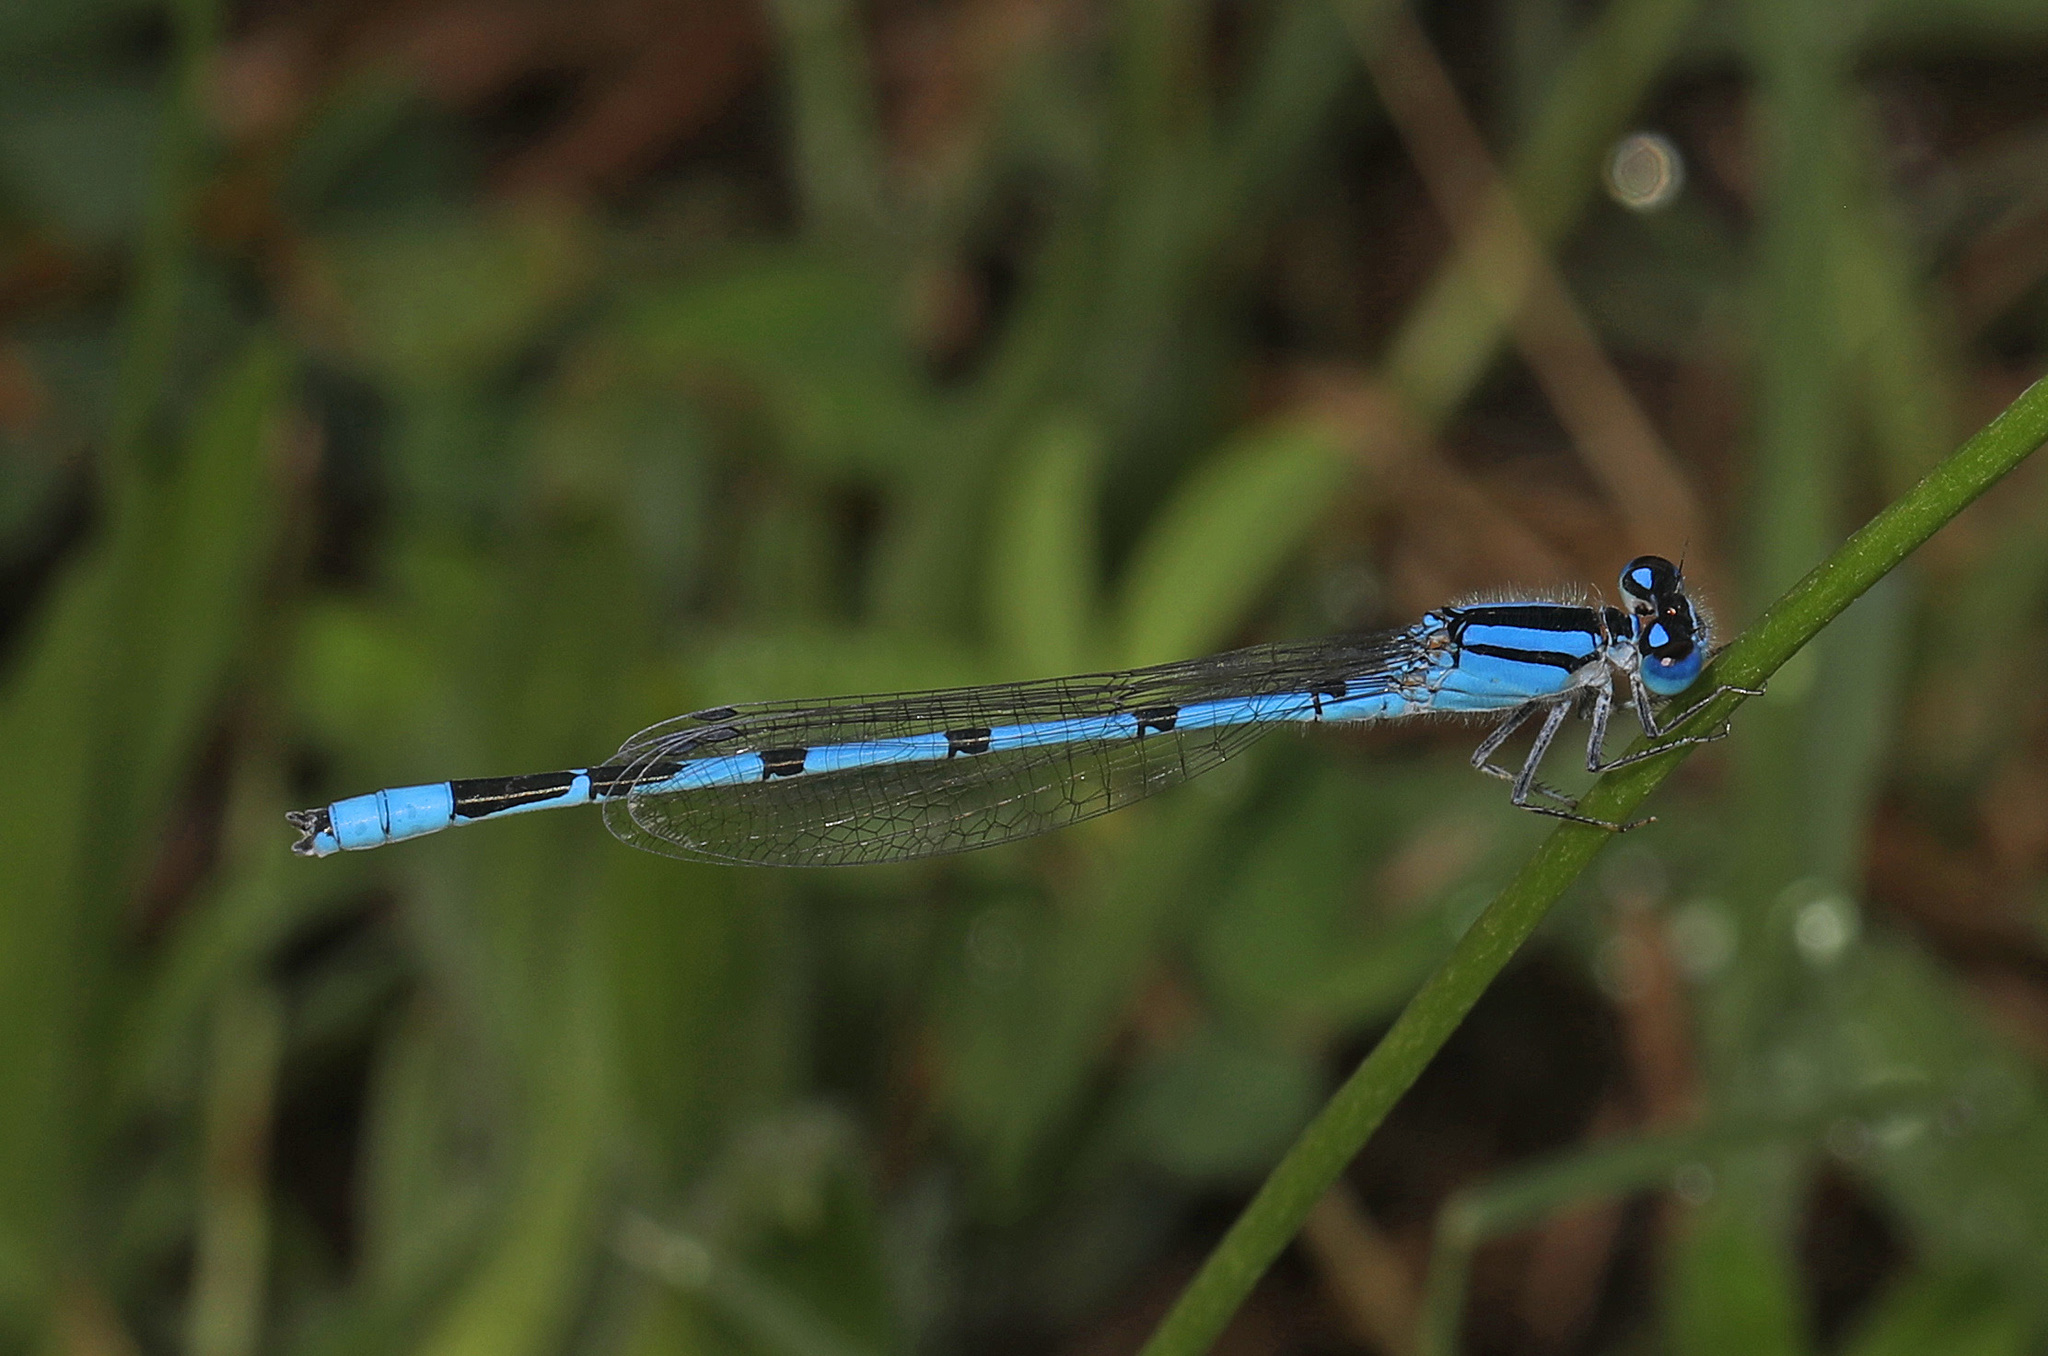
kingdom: Animalia
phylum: Arthropoda
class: Insecta
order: Odonata
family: Coenagrionidae
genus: Enallagma
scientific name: Enallagma civile
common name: Damselfly
